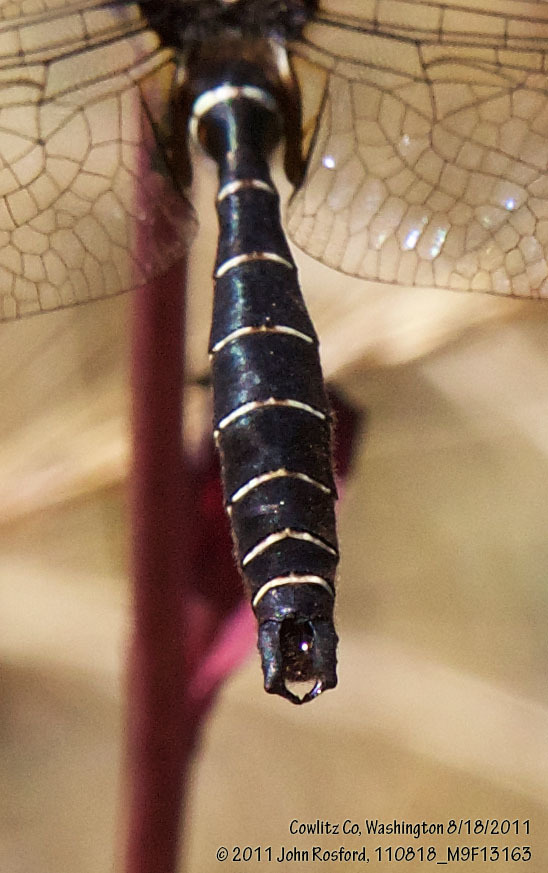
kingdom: Animalia
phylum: Arthropoda
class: Insecta
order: Odonata
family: Corduliidae
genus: Somatochlora
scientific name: Somatochlora albicincta
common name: Ringed emerald
